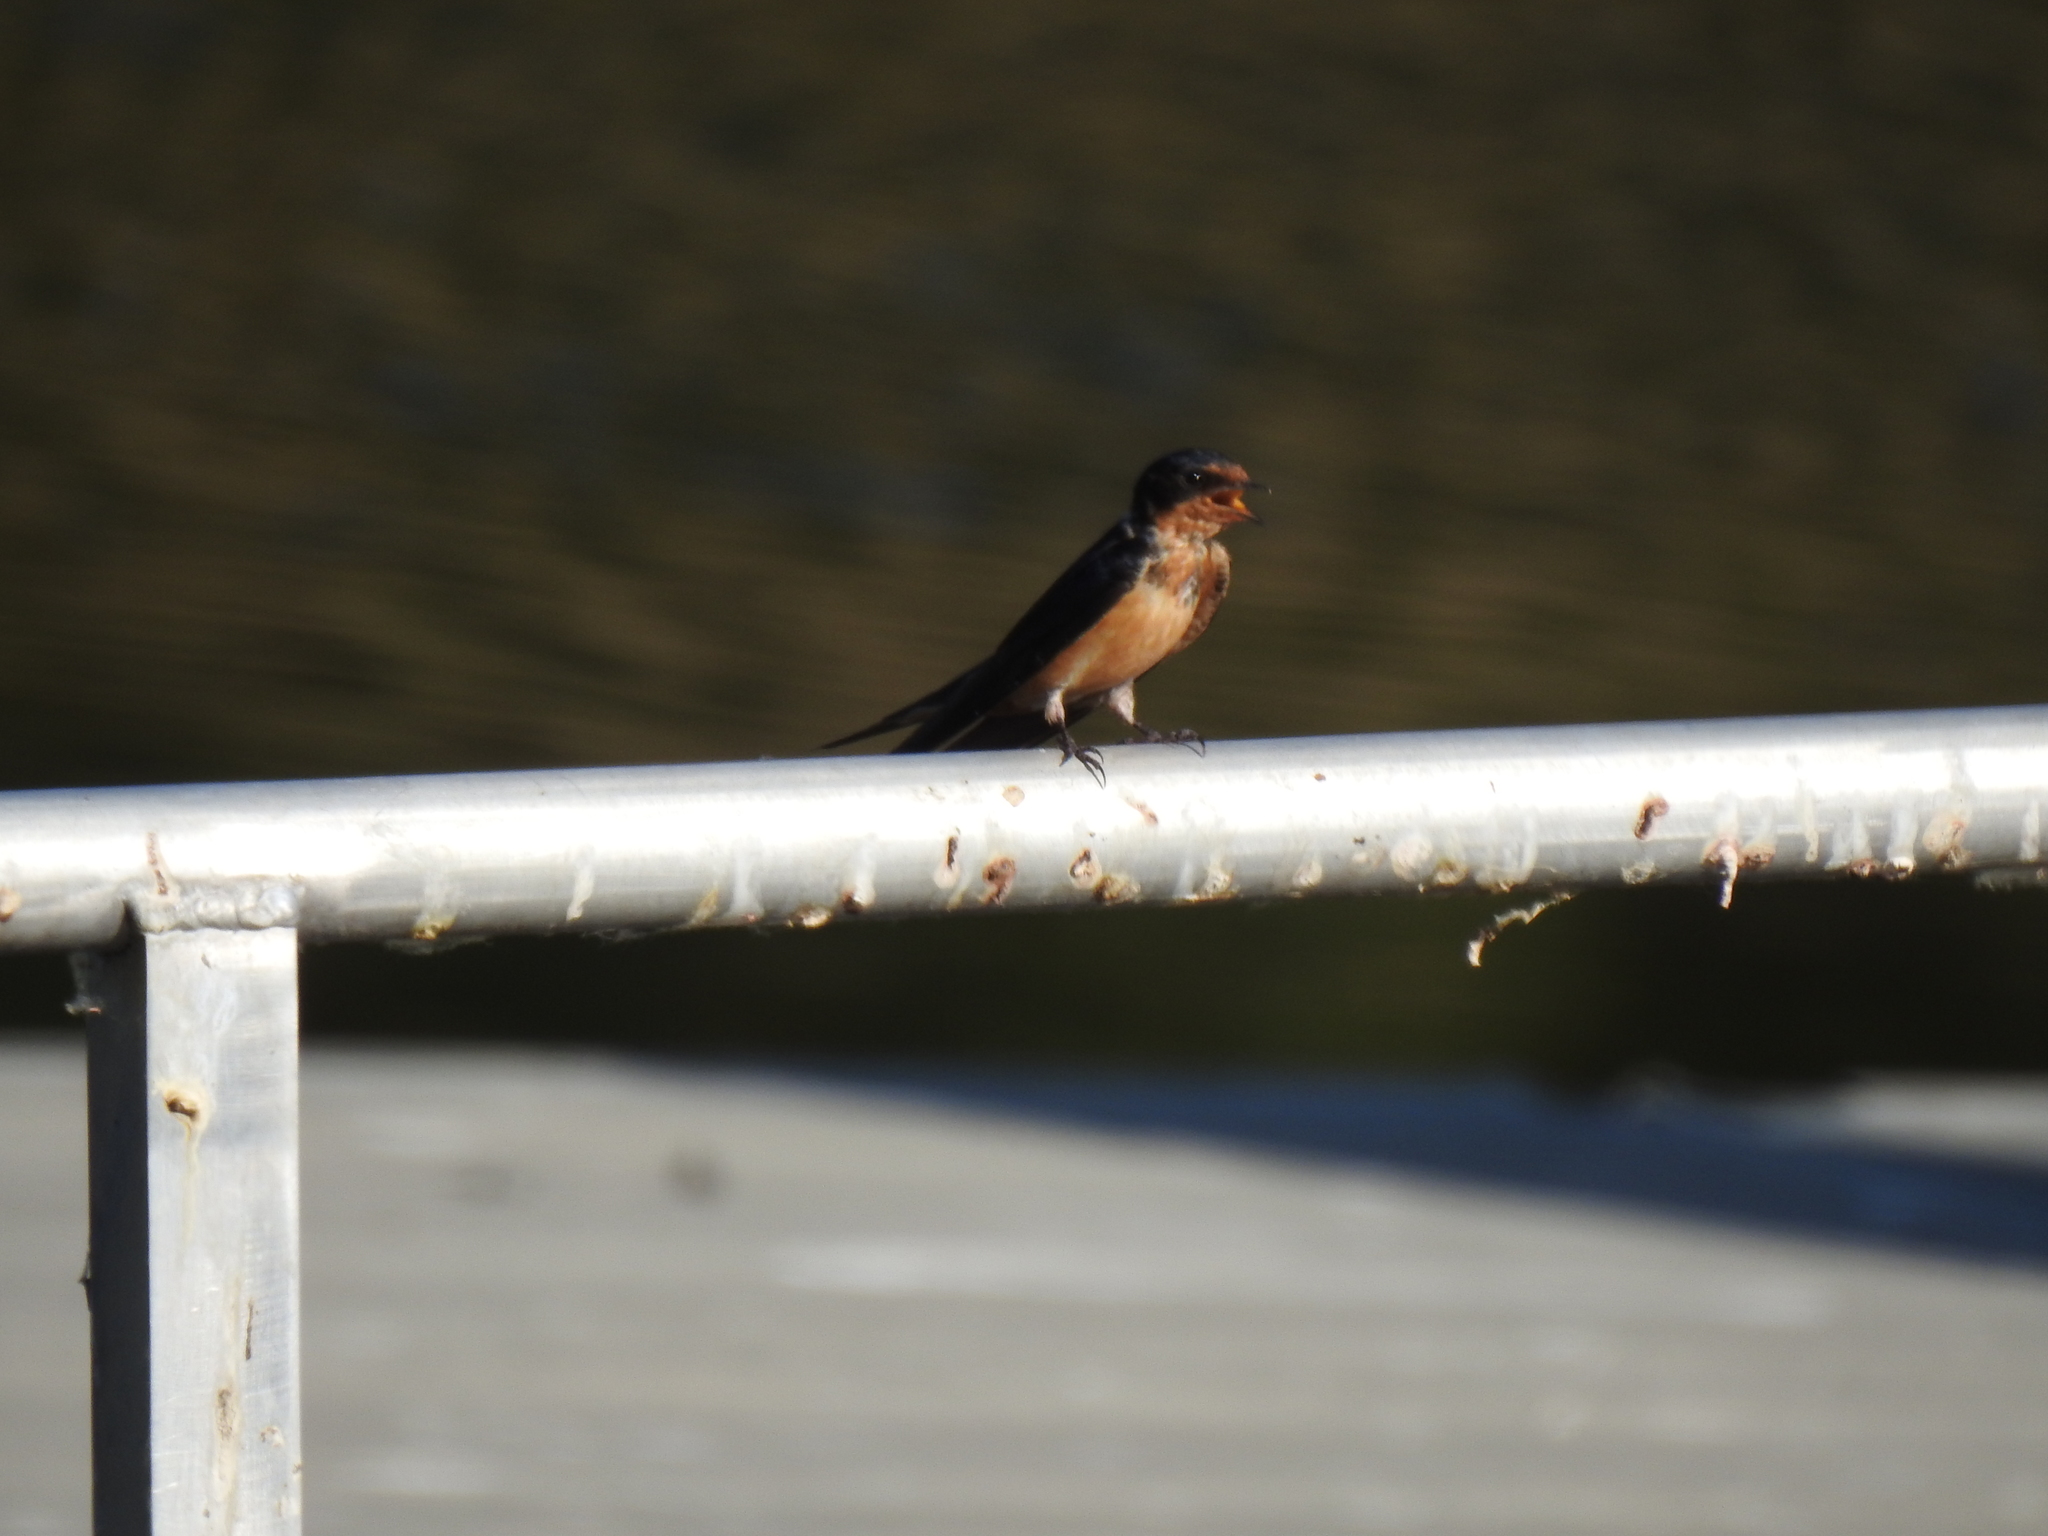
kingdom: Animalia
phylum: Chordata
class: Aves
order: Passeriformes
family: Hirundinidae
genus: Hirundo
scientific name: Hirundo rustica
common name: Barn swallow
